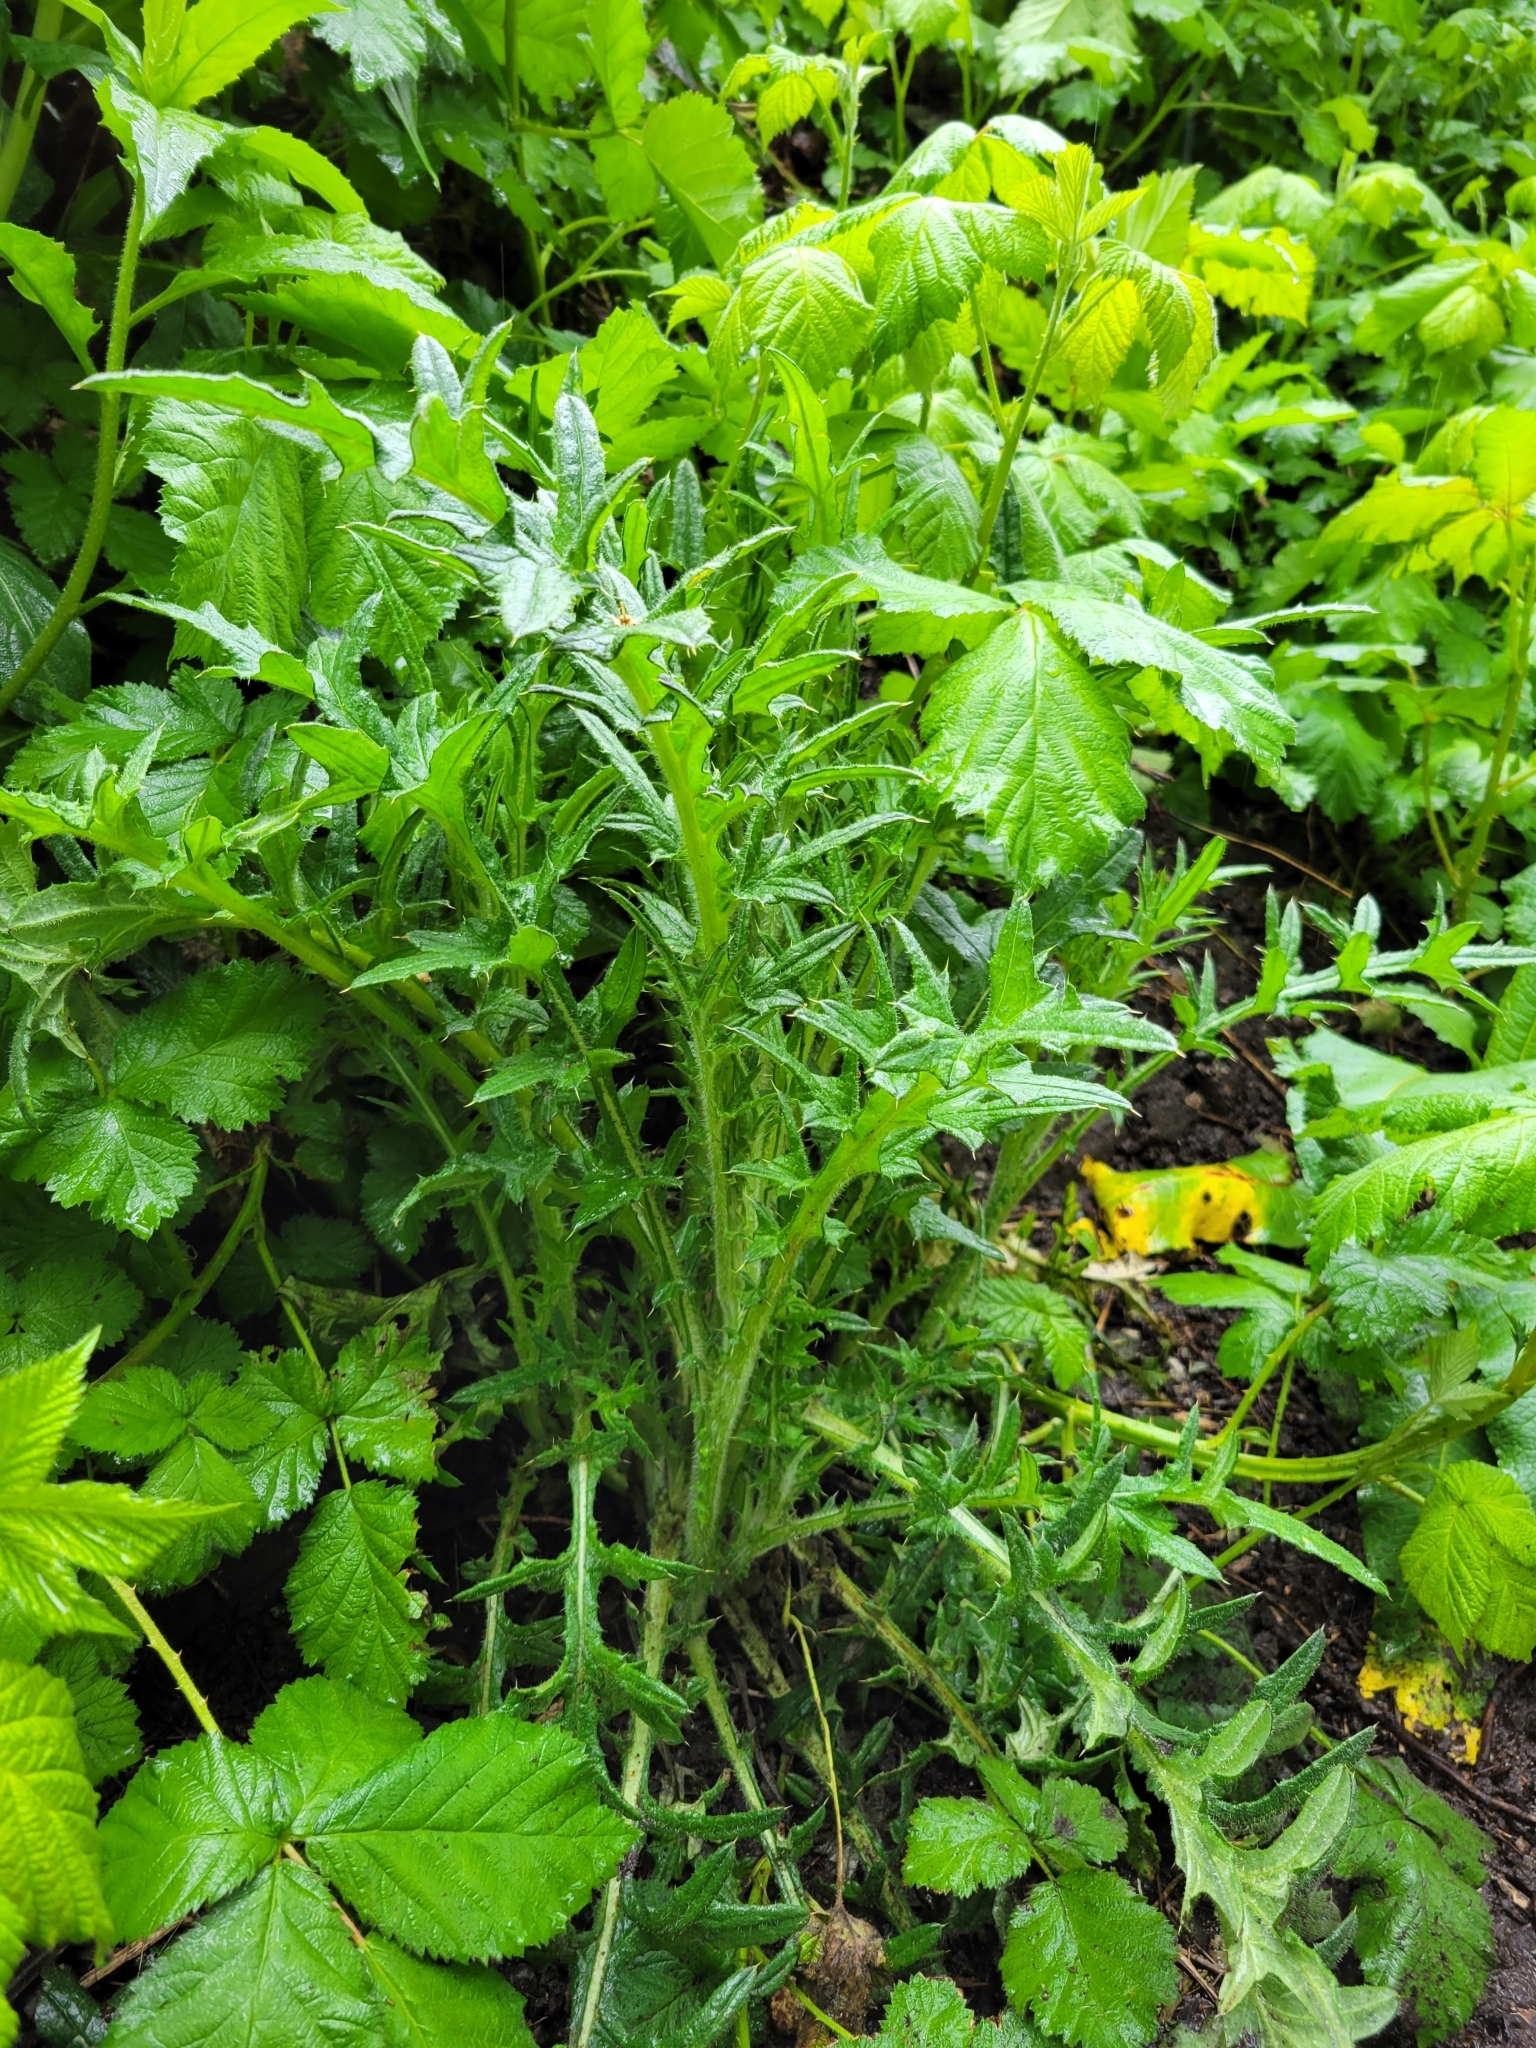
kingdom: Plantae
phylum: Tracheophyta
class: Magnoliopsida
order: Asterales
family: Asteraceae
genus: Cirsium
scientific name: Cirsium vulgare
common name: Bull thistle
